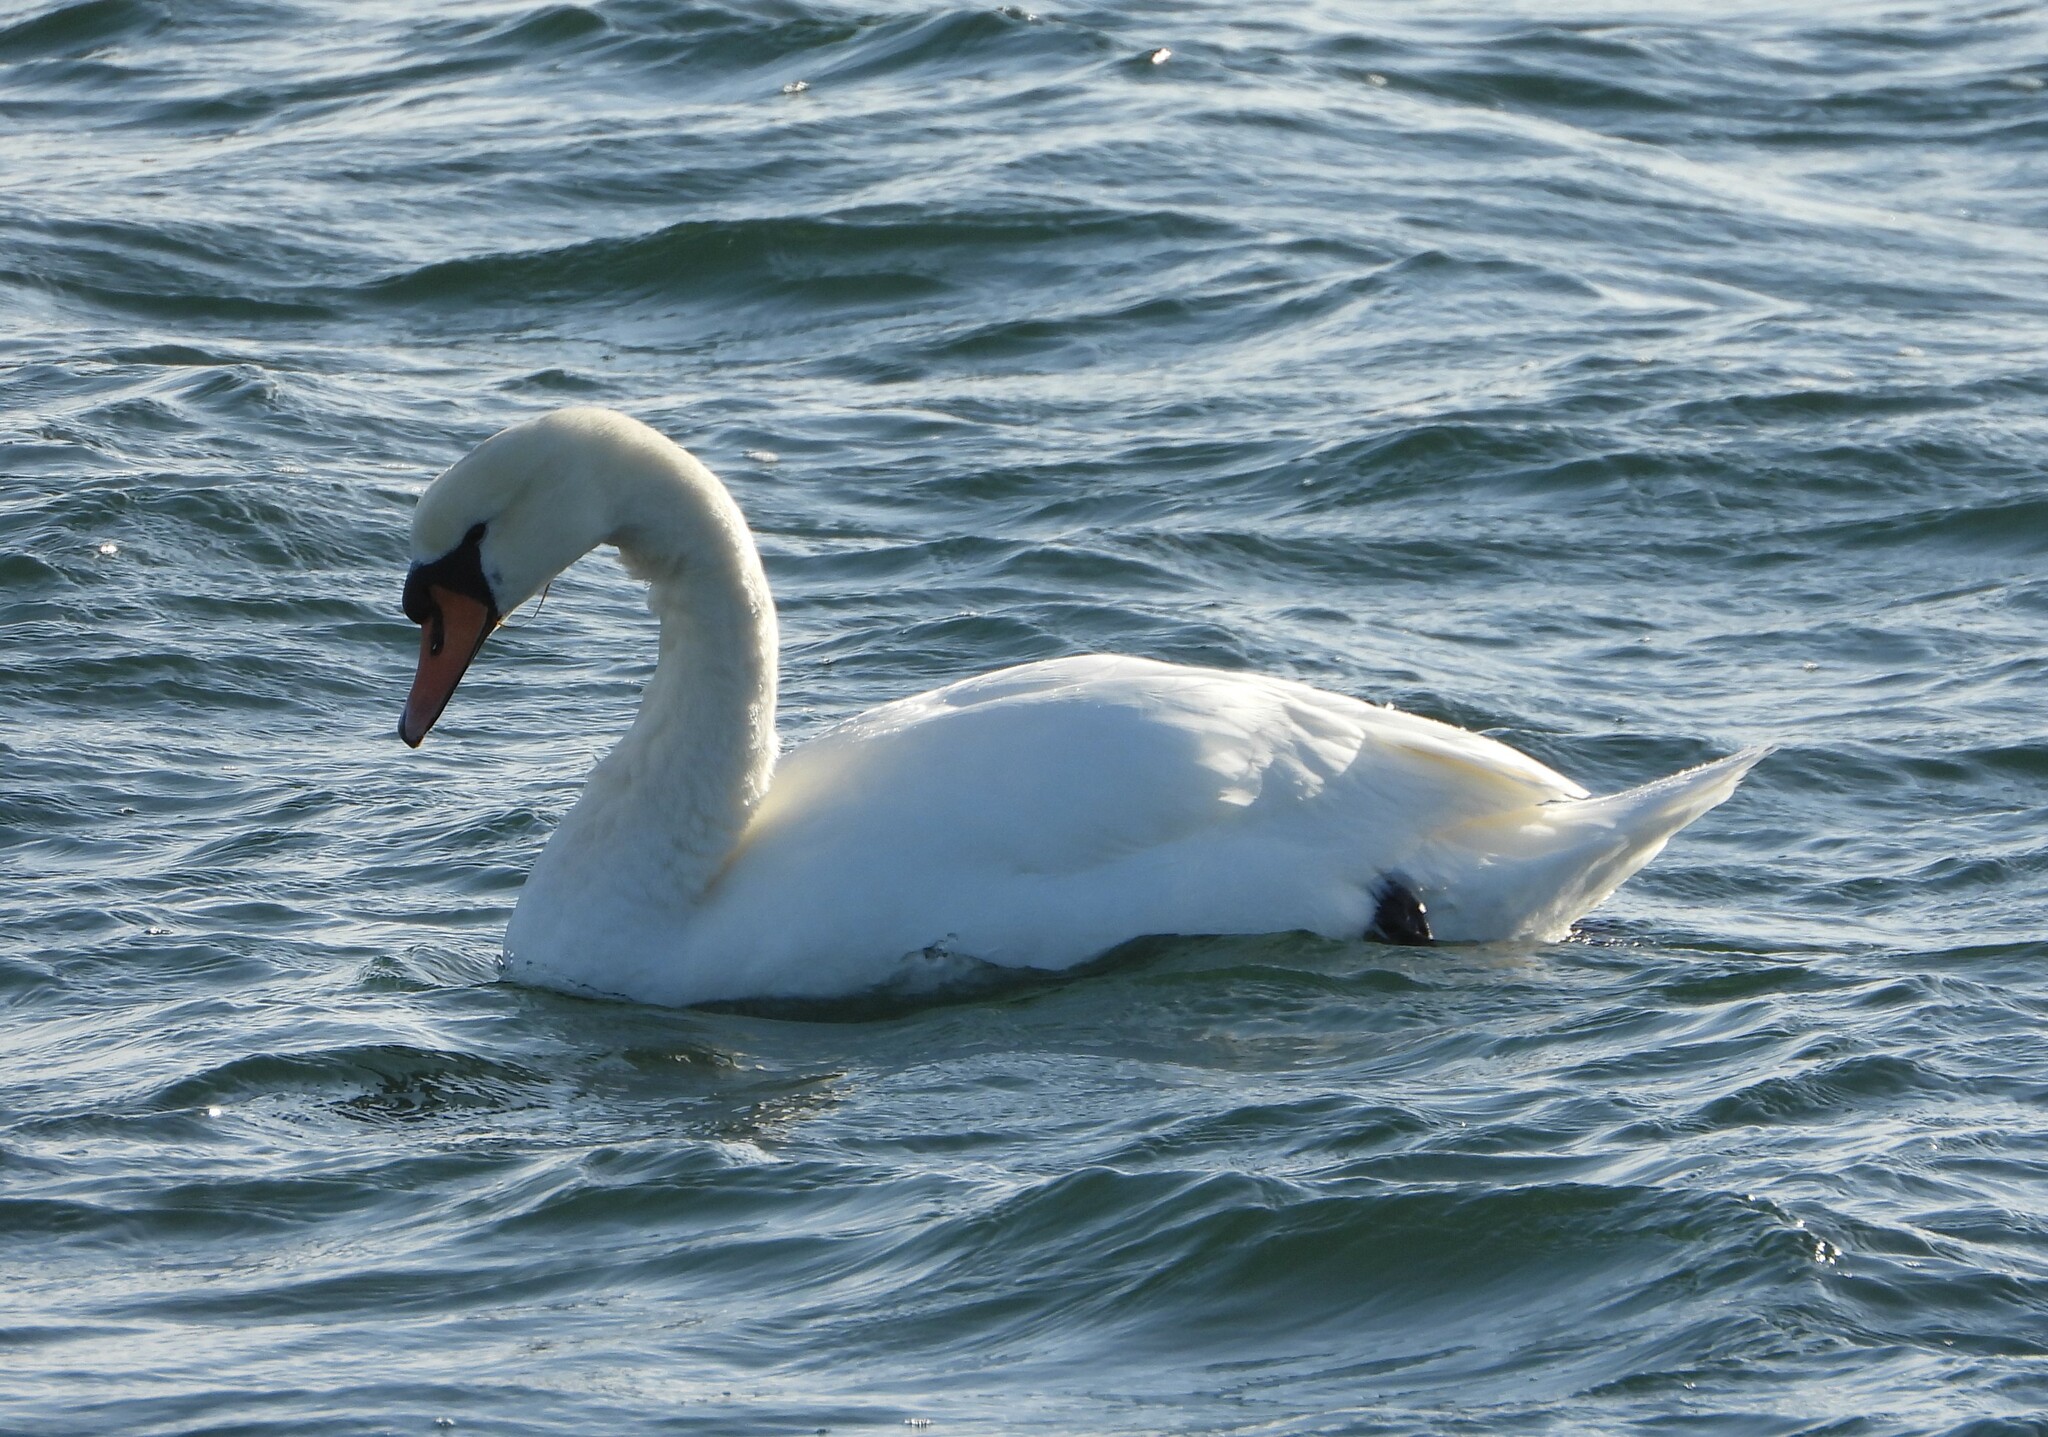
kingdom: Animalia
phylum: Chordata
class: Aves
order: Anseriformes
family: Anatidae
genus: Cygnus
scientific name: Cygnus olor
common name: Mute swan
